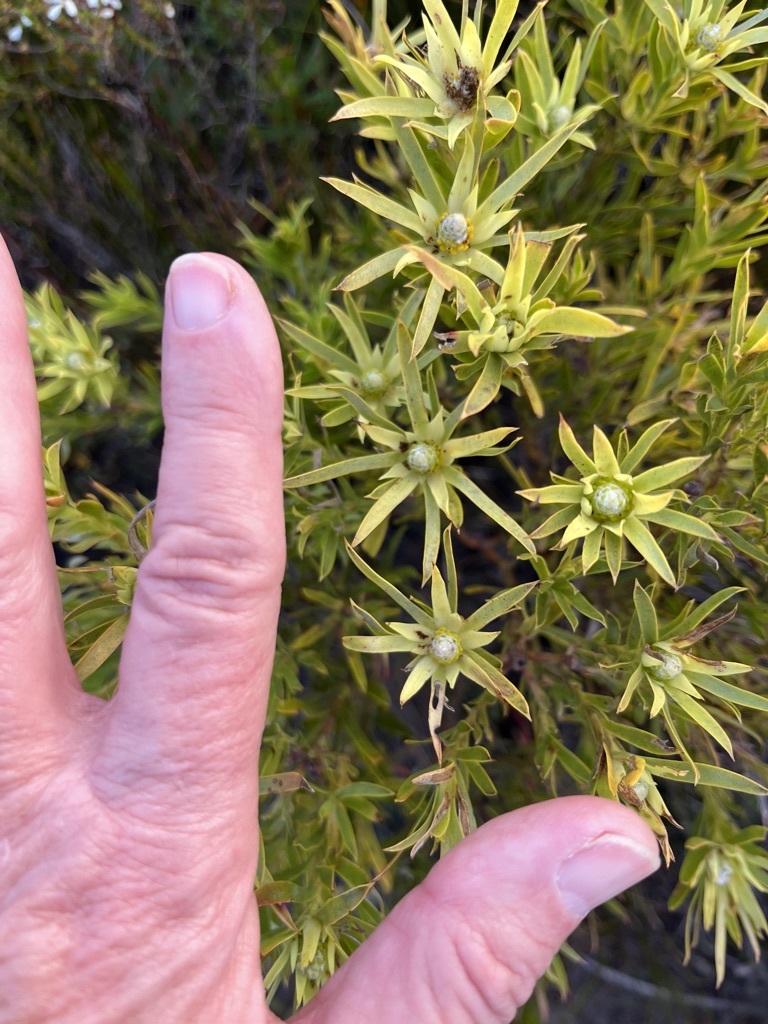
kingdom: Plantae
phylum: Tracheophyta
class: Magnoliopsida
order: Proteales
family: Proteaceae
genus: Leucadendron
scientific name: Leucadendron modestum
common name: Rough-leaf conebush
